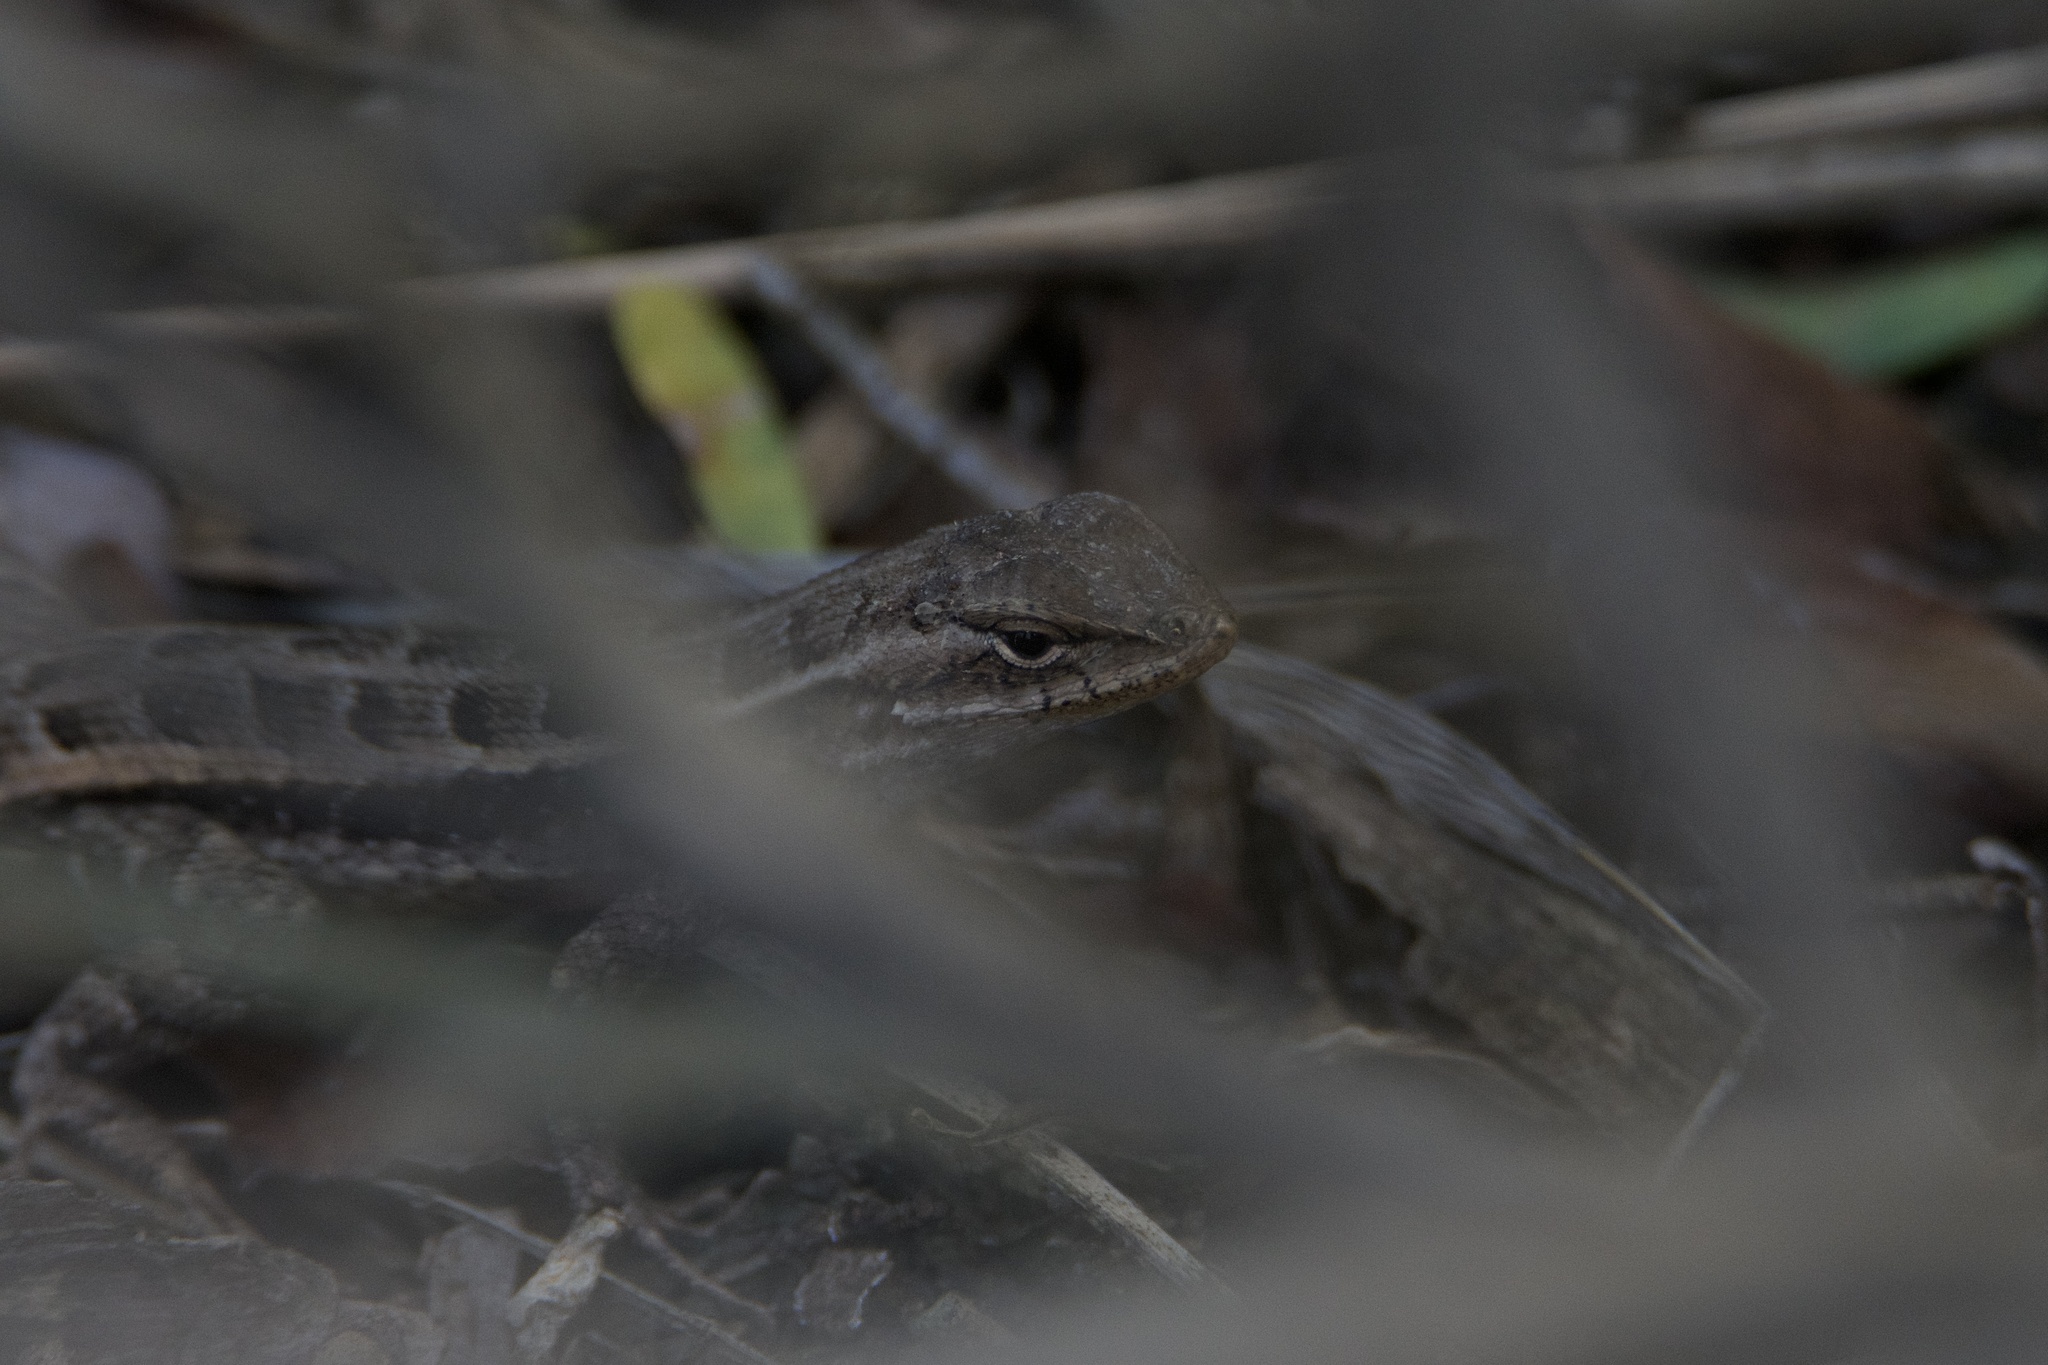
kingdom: Animalia
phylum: Chordata
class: Squamata
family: Phrynosomatidae
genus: Sceloporus
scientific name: Sceloporus variabilis
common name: Rosebelly lizard
